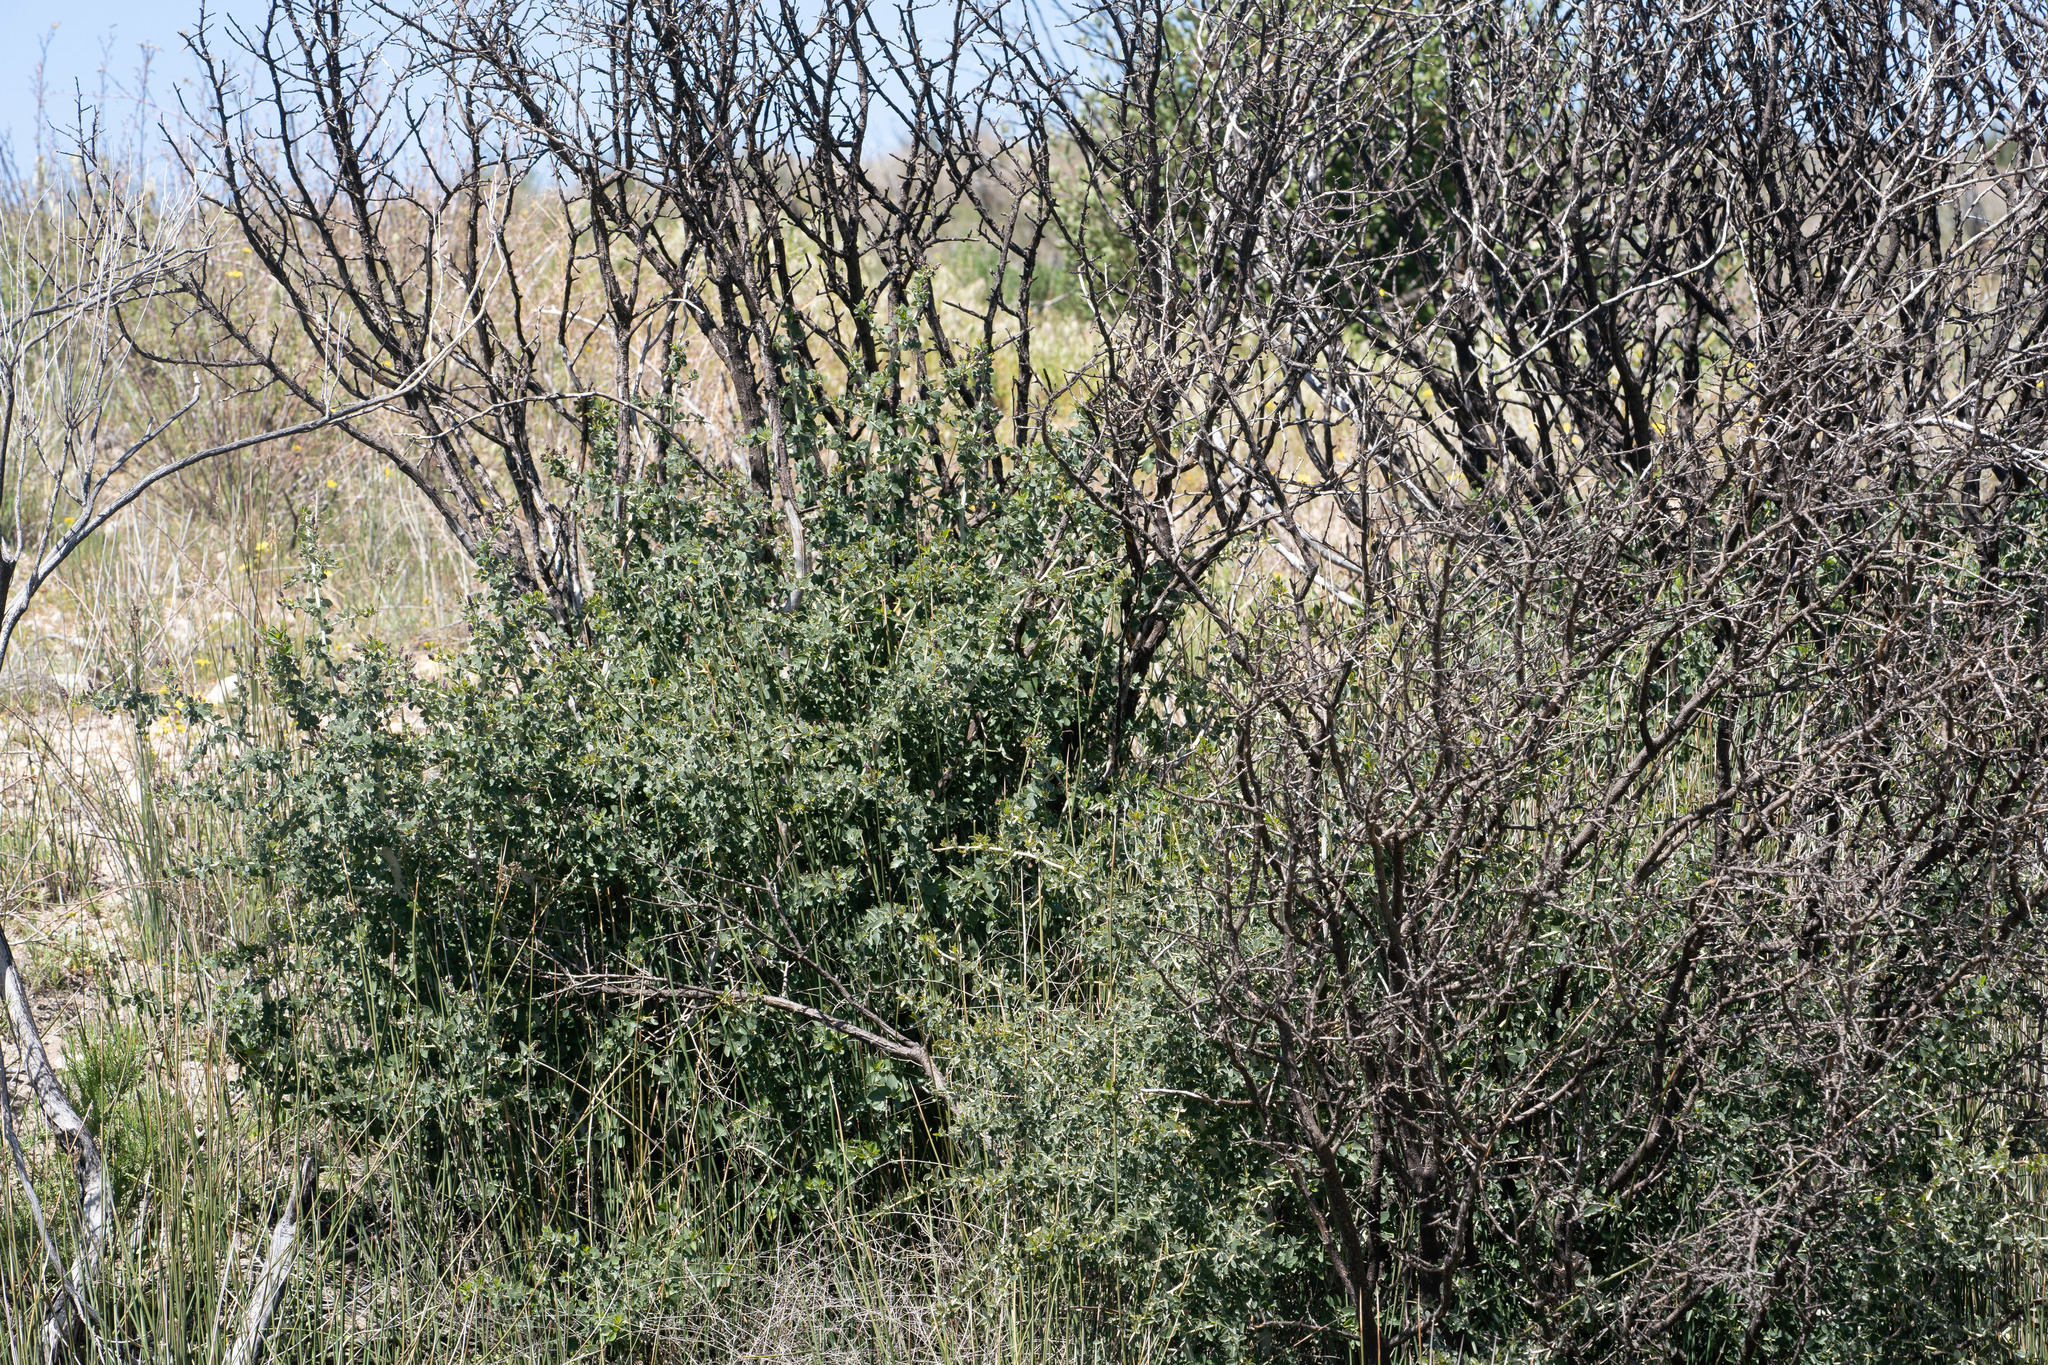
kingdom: Plantae
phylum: Tracheophyta
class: Magnoliopsida
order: Rosales
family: Rhamnaceae
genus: Ceanothus
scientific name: Ceanothus leucodermis
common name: Chaparral whitethorn
